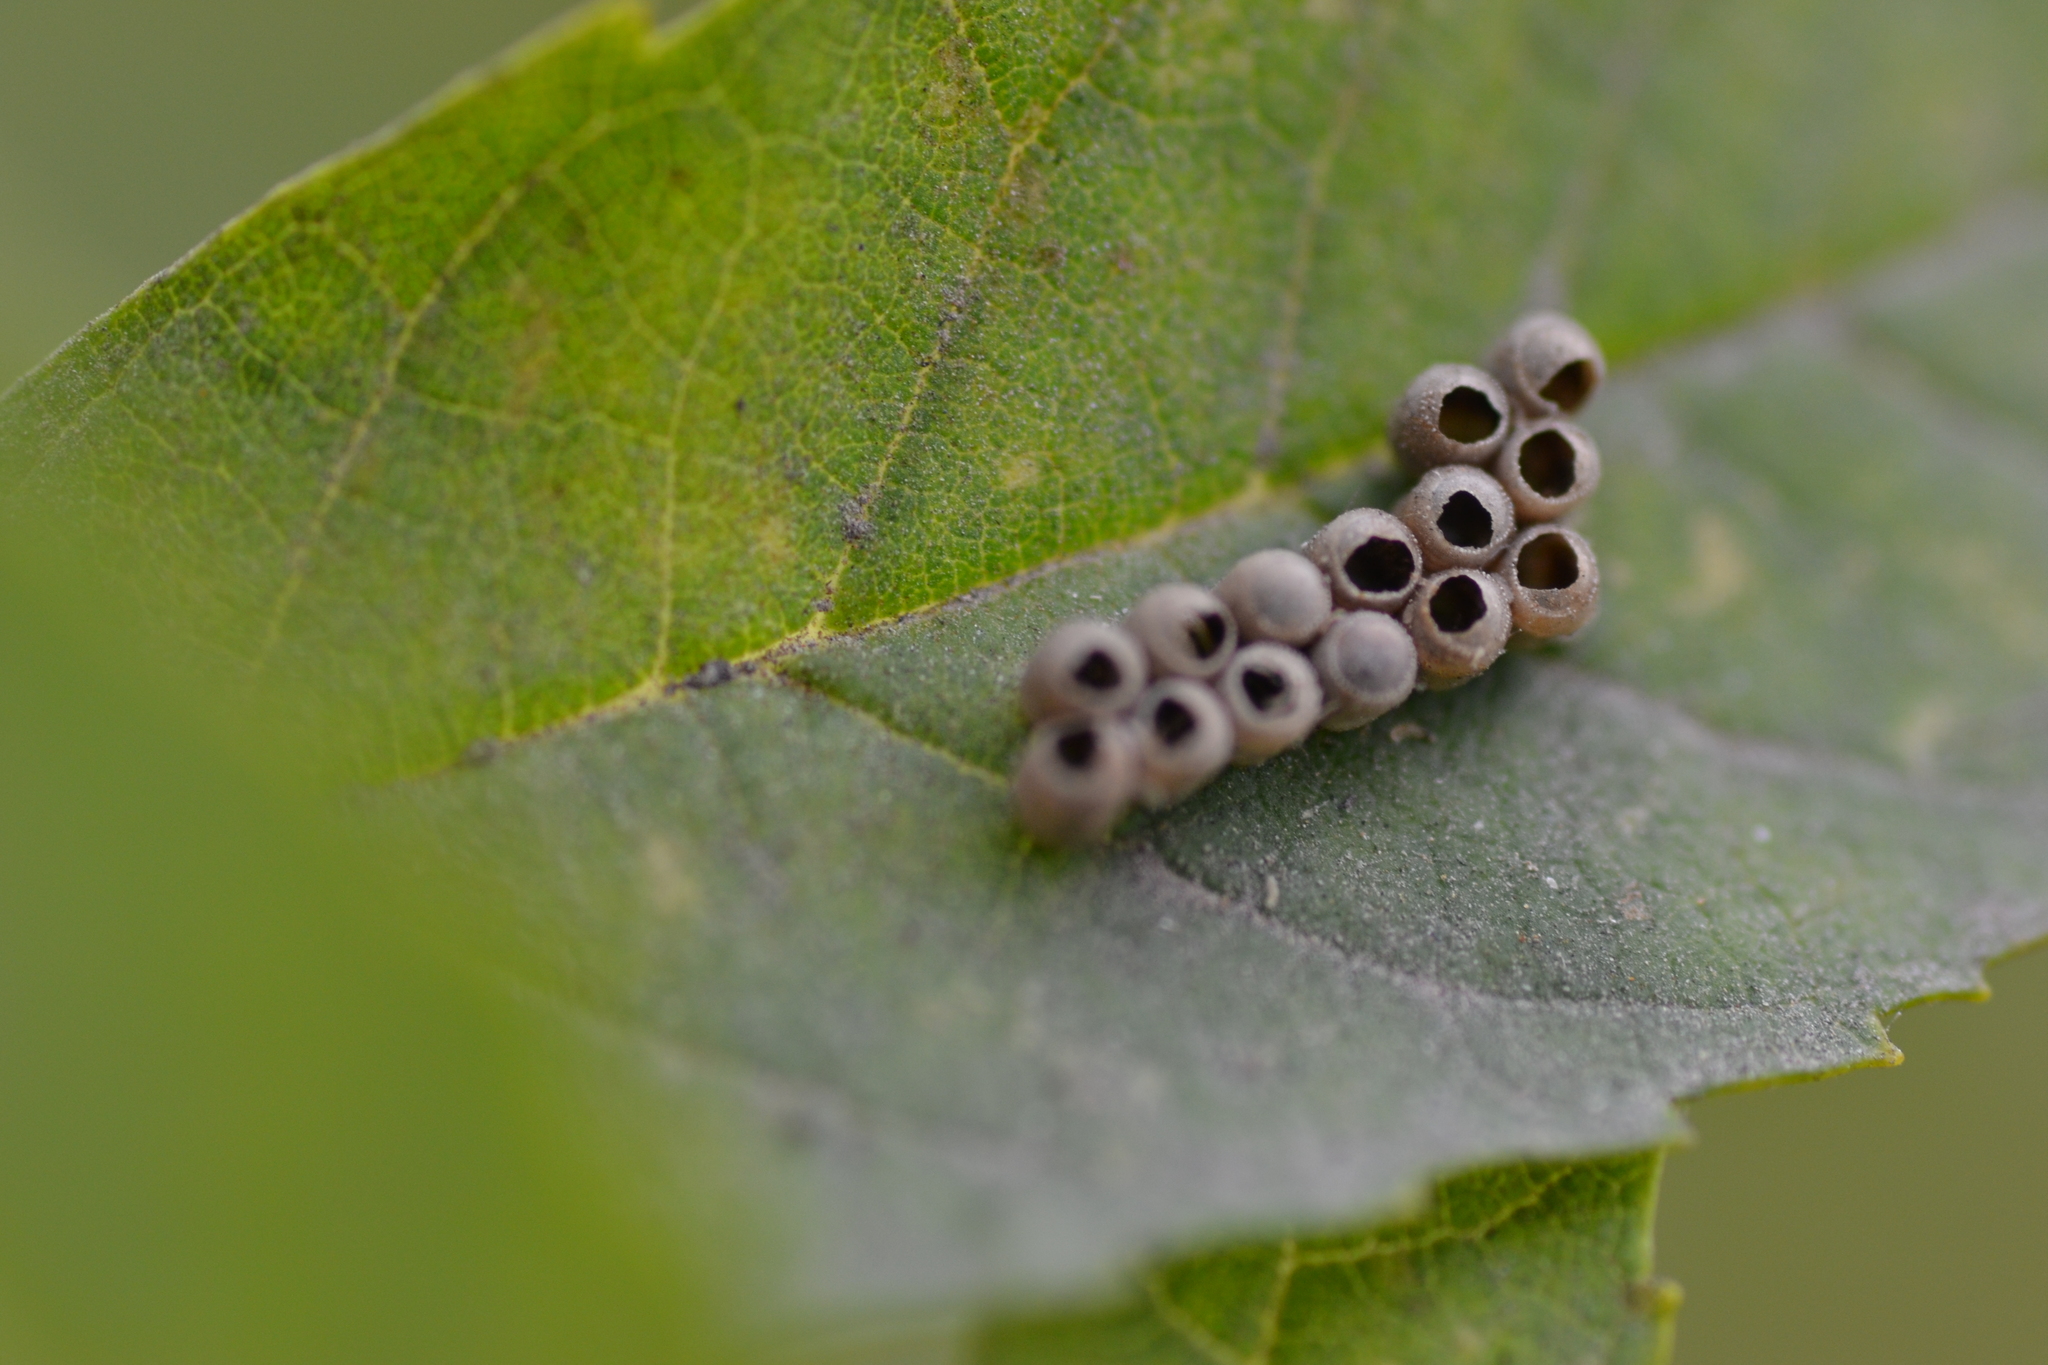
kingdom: Animalia
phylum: Arthropoda
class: Insecta
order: Hemiptera
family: Pentatomidae
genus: Pellaea
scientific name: Pellaea stictica
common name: Stink bug
